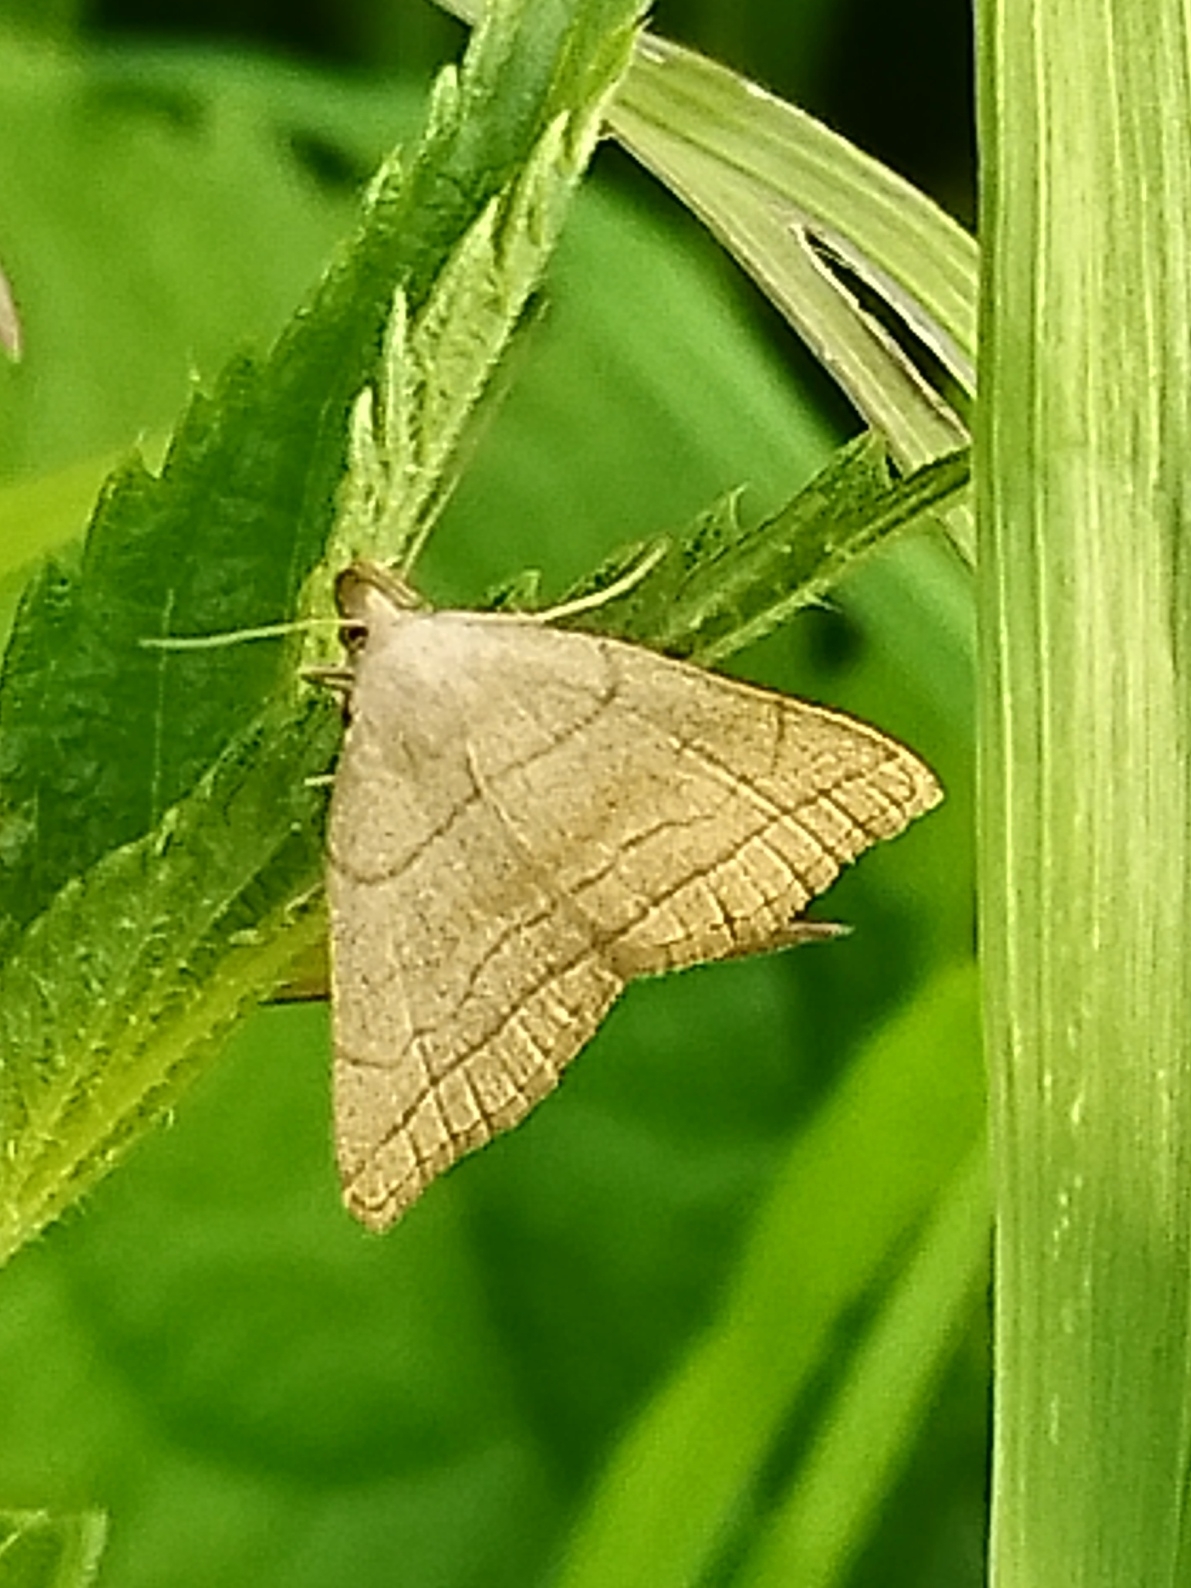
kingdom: Animalia
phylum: Arthropoda
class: Insecta
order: Lepidoptera
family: Erebidae
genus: Herminia
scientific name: Herminia tarsicrinalis
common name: Shaded fan-foot
